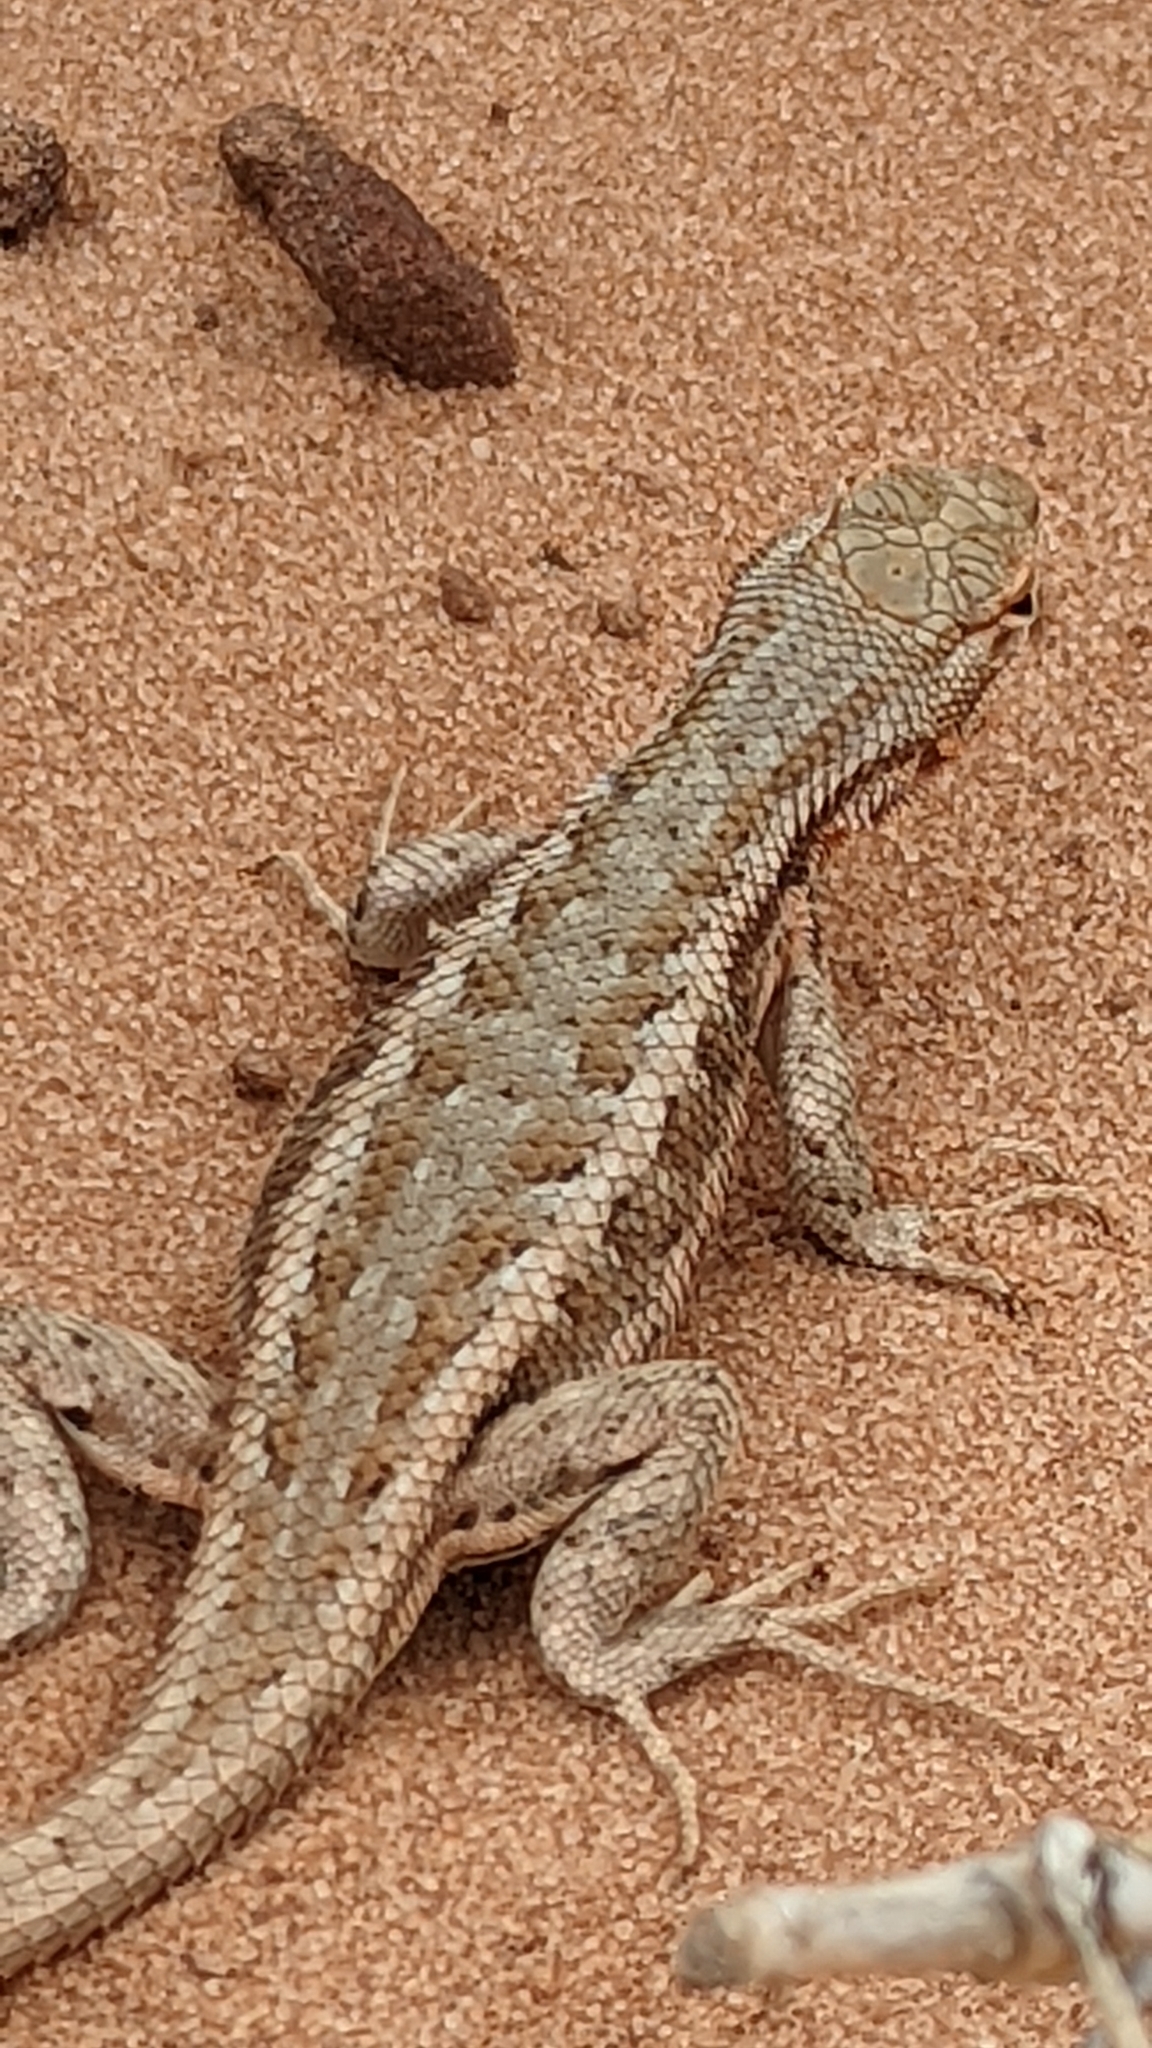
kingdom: Animalia
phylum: Chordata
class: Squamata
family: Phrynosomatidae
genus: Sceloporus
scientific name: Sceloporus graciosus
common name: Sagebrush lizard
